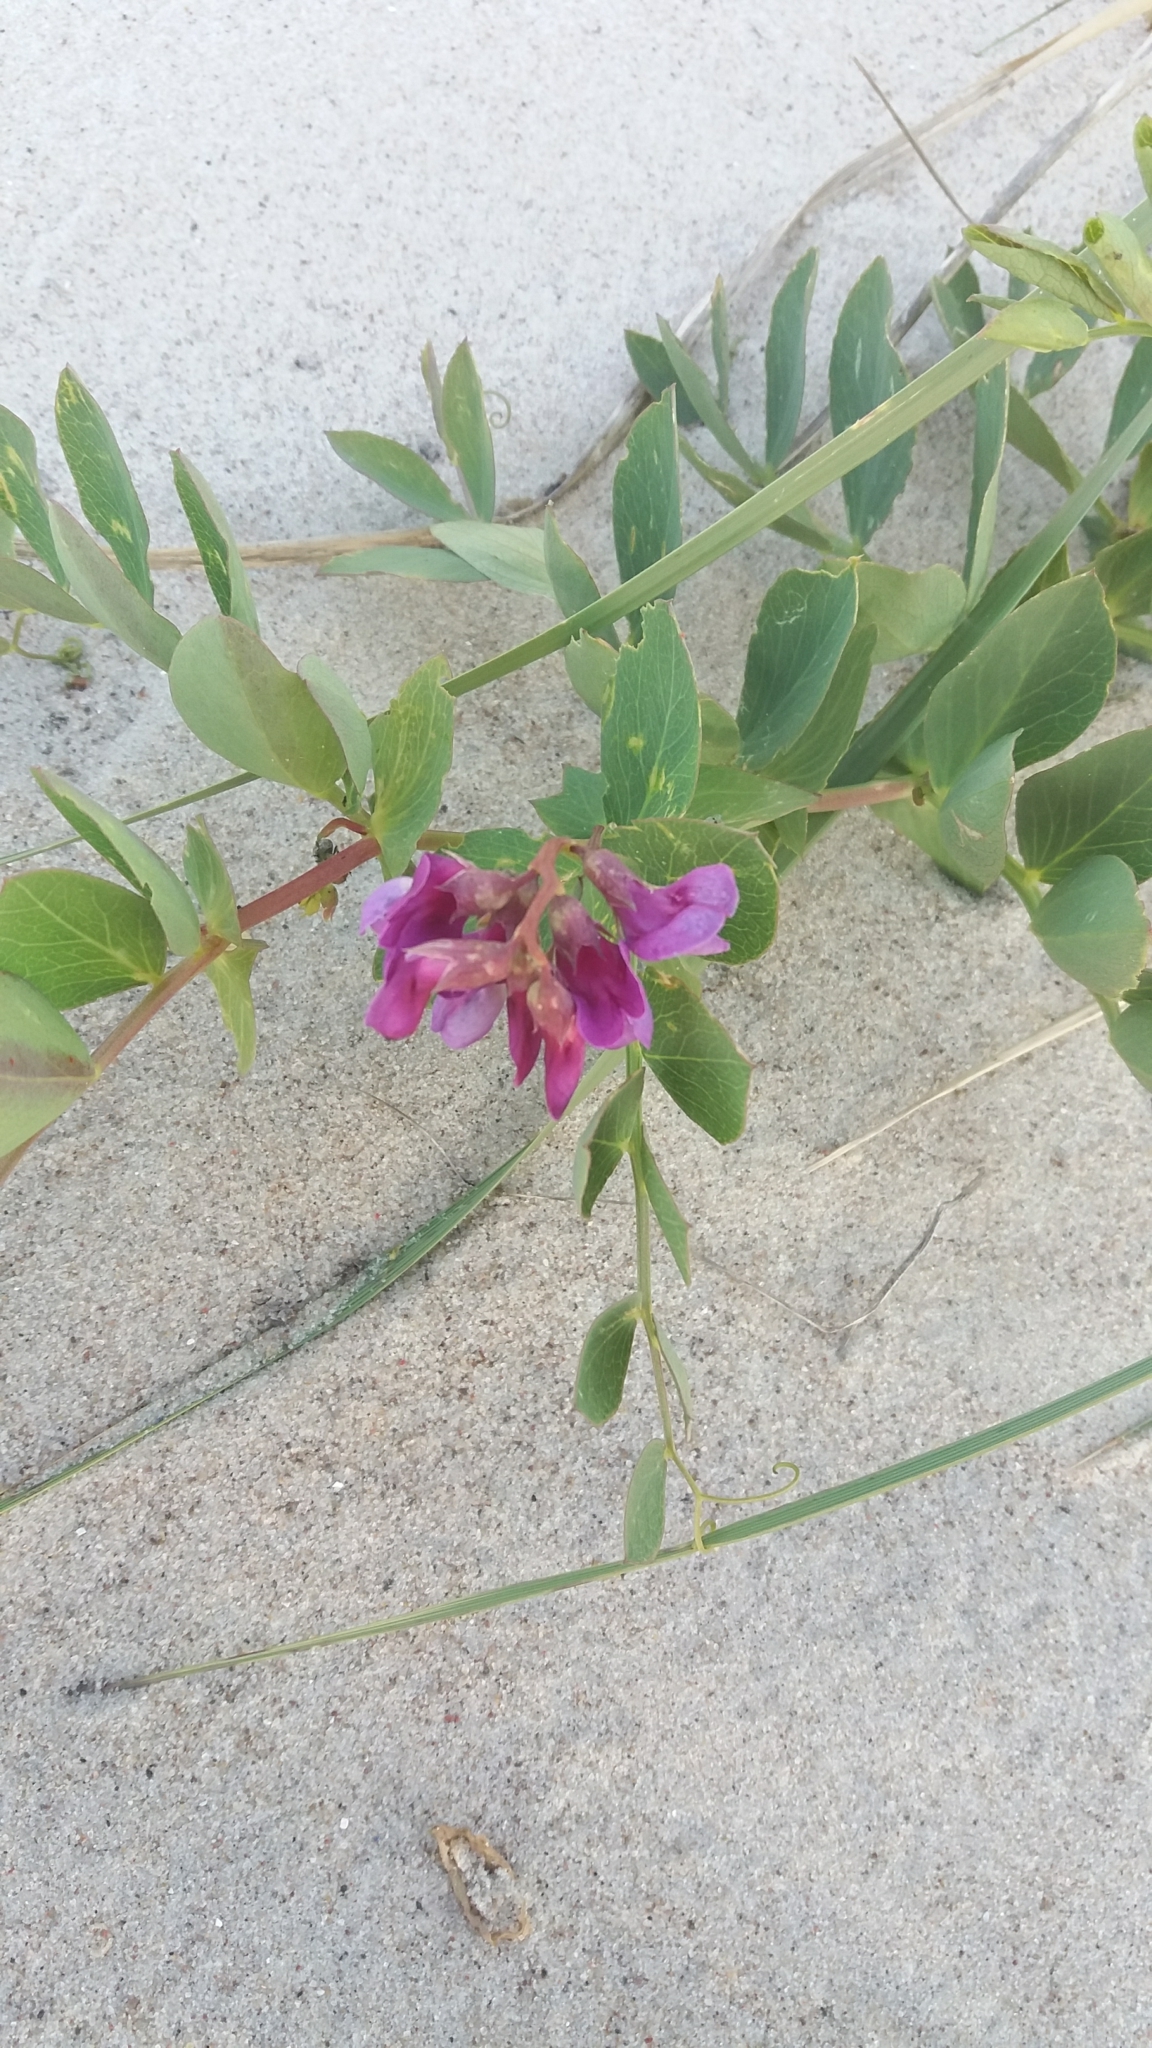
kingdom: Plantae
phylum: Tracheophyta
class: Magnoliopsida
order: Fabales
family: Fabaceae
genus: Lathyrus
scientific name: Lathyrus japonicus
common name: Sea pea
